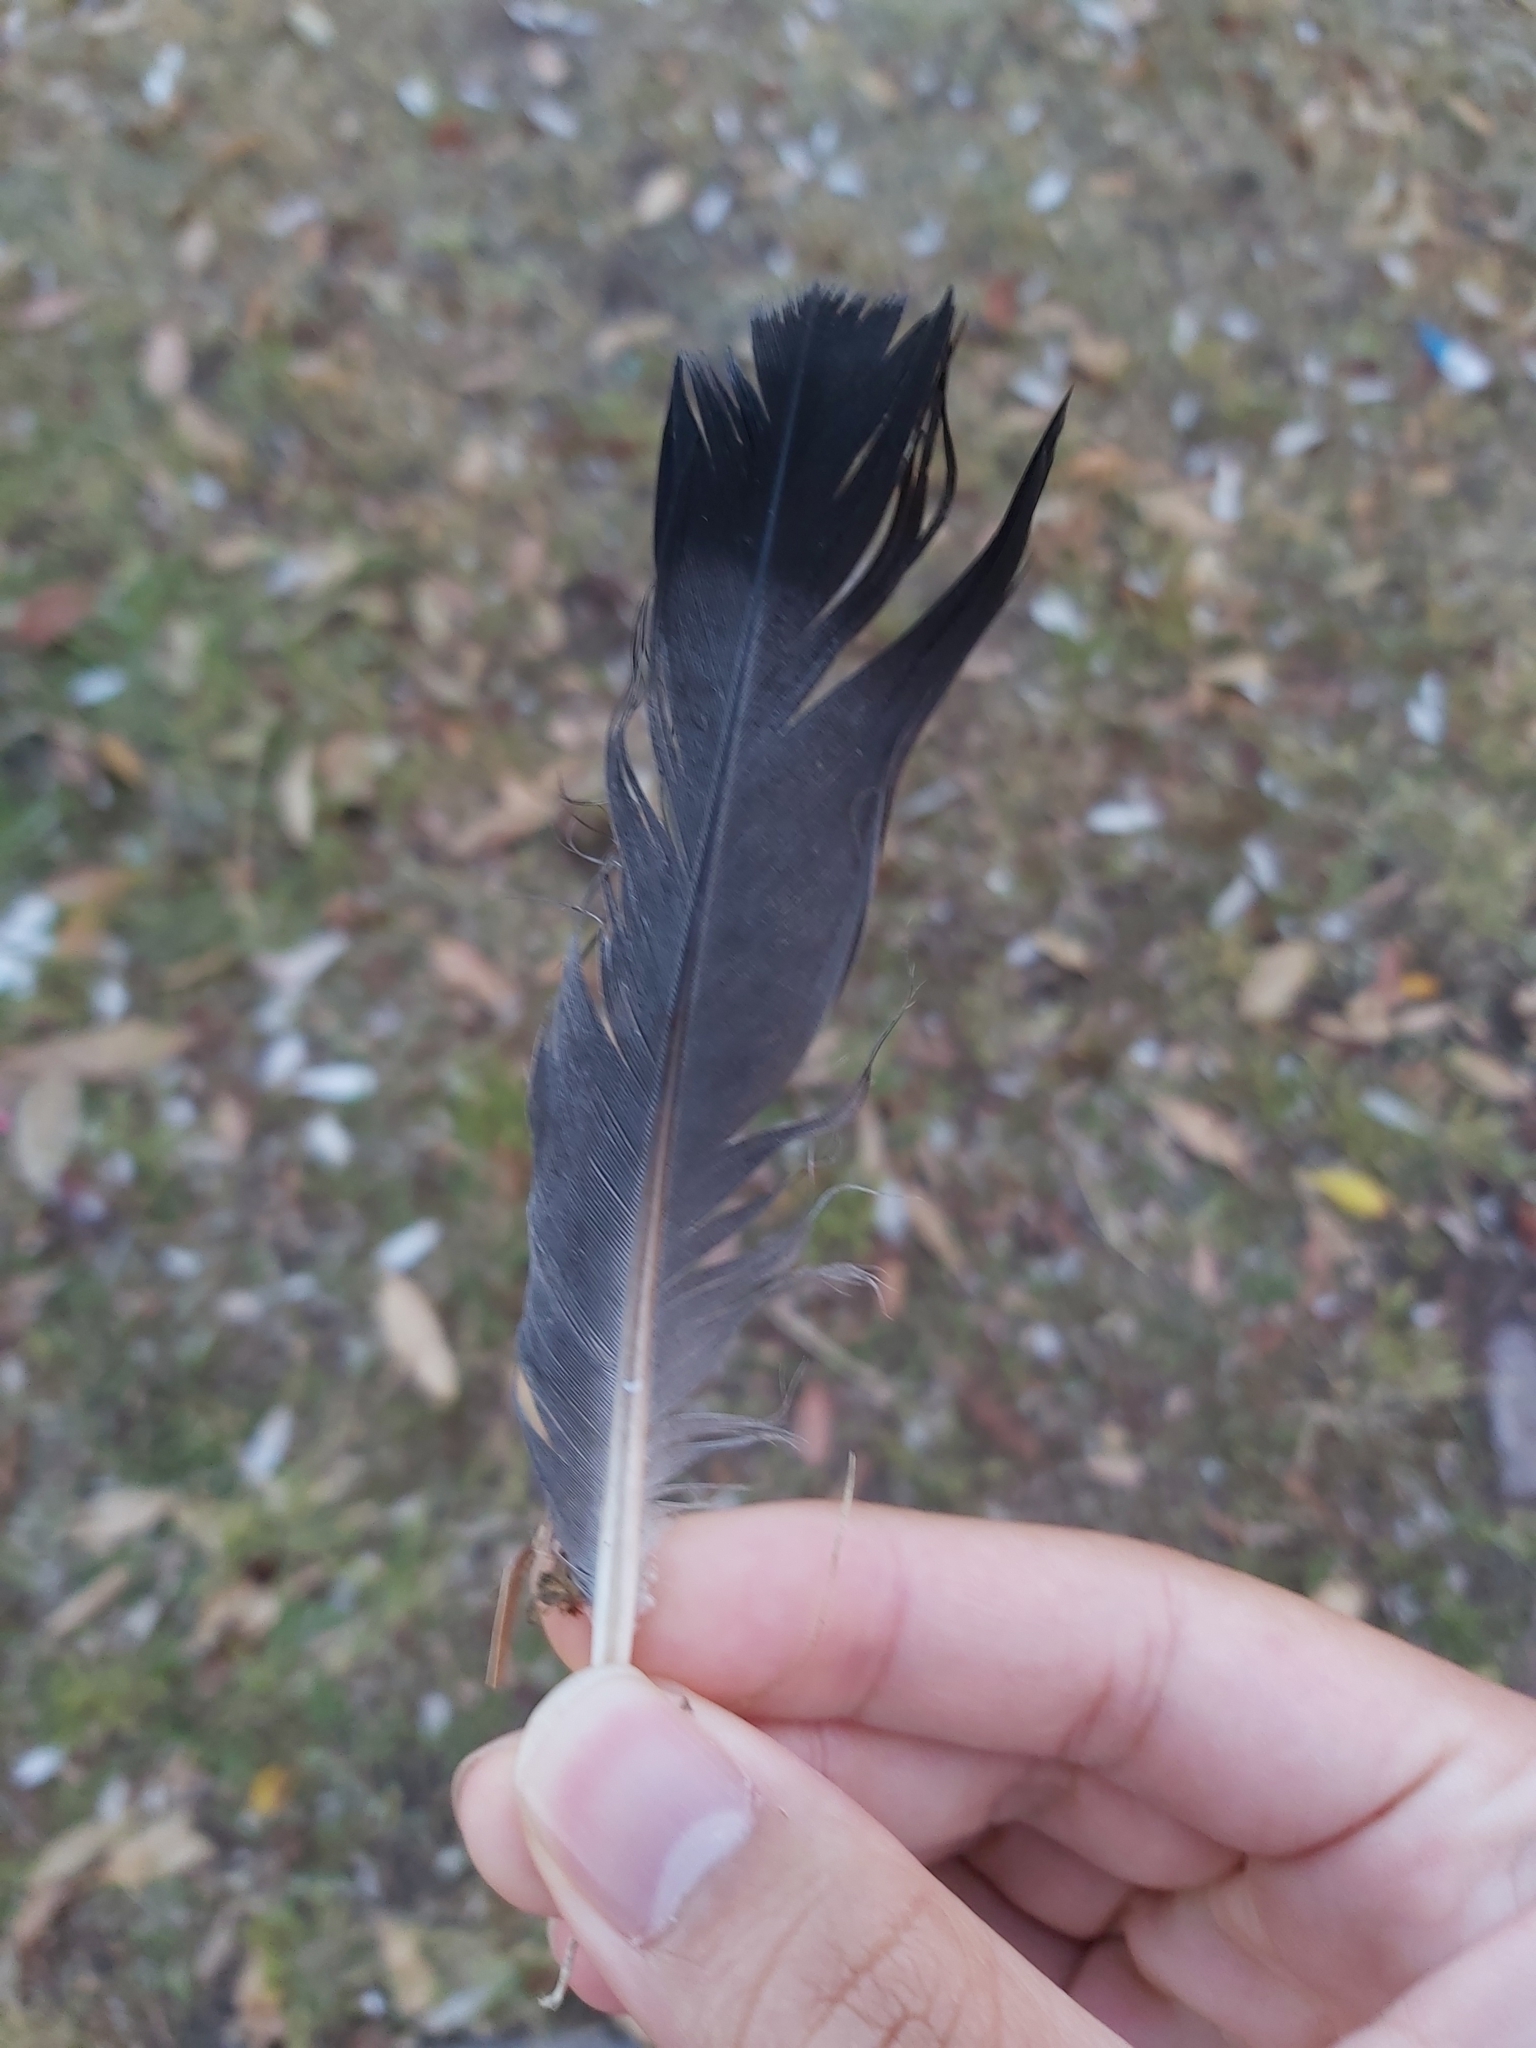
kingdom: Animalia
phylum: Chordata
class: Aves
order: Columbiformes
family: Columbidae
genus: Columba
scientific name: Columba livia
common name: Rock pigeon
